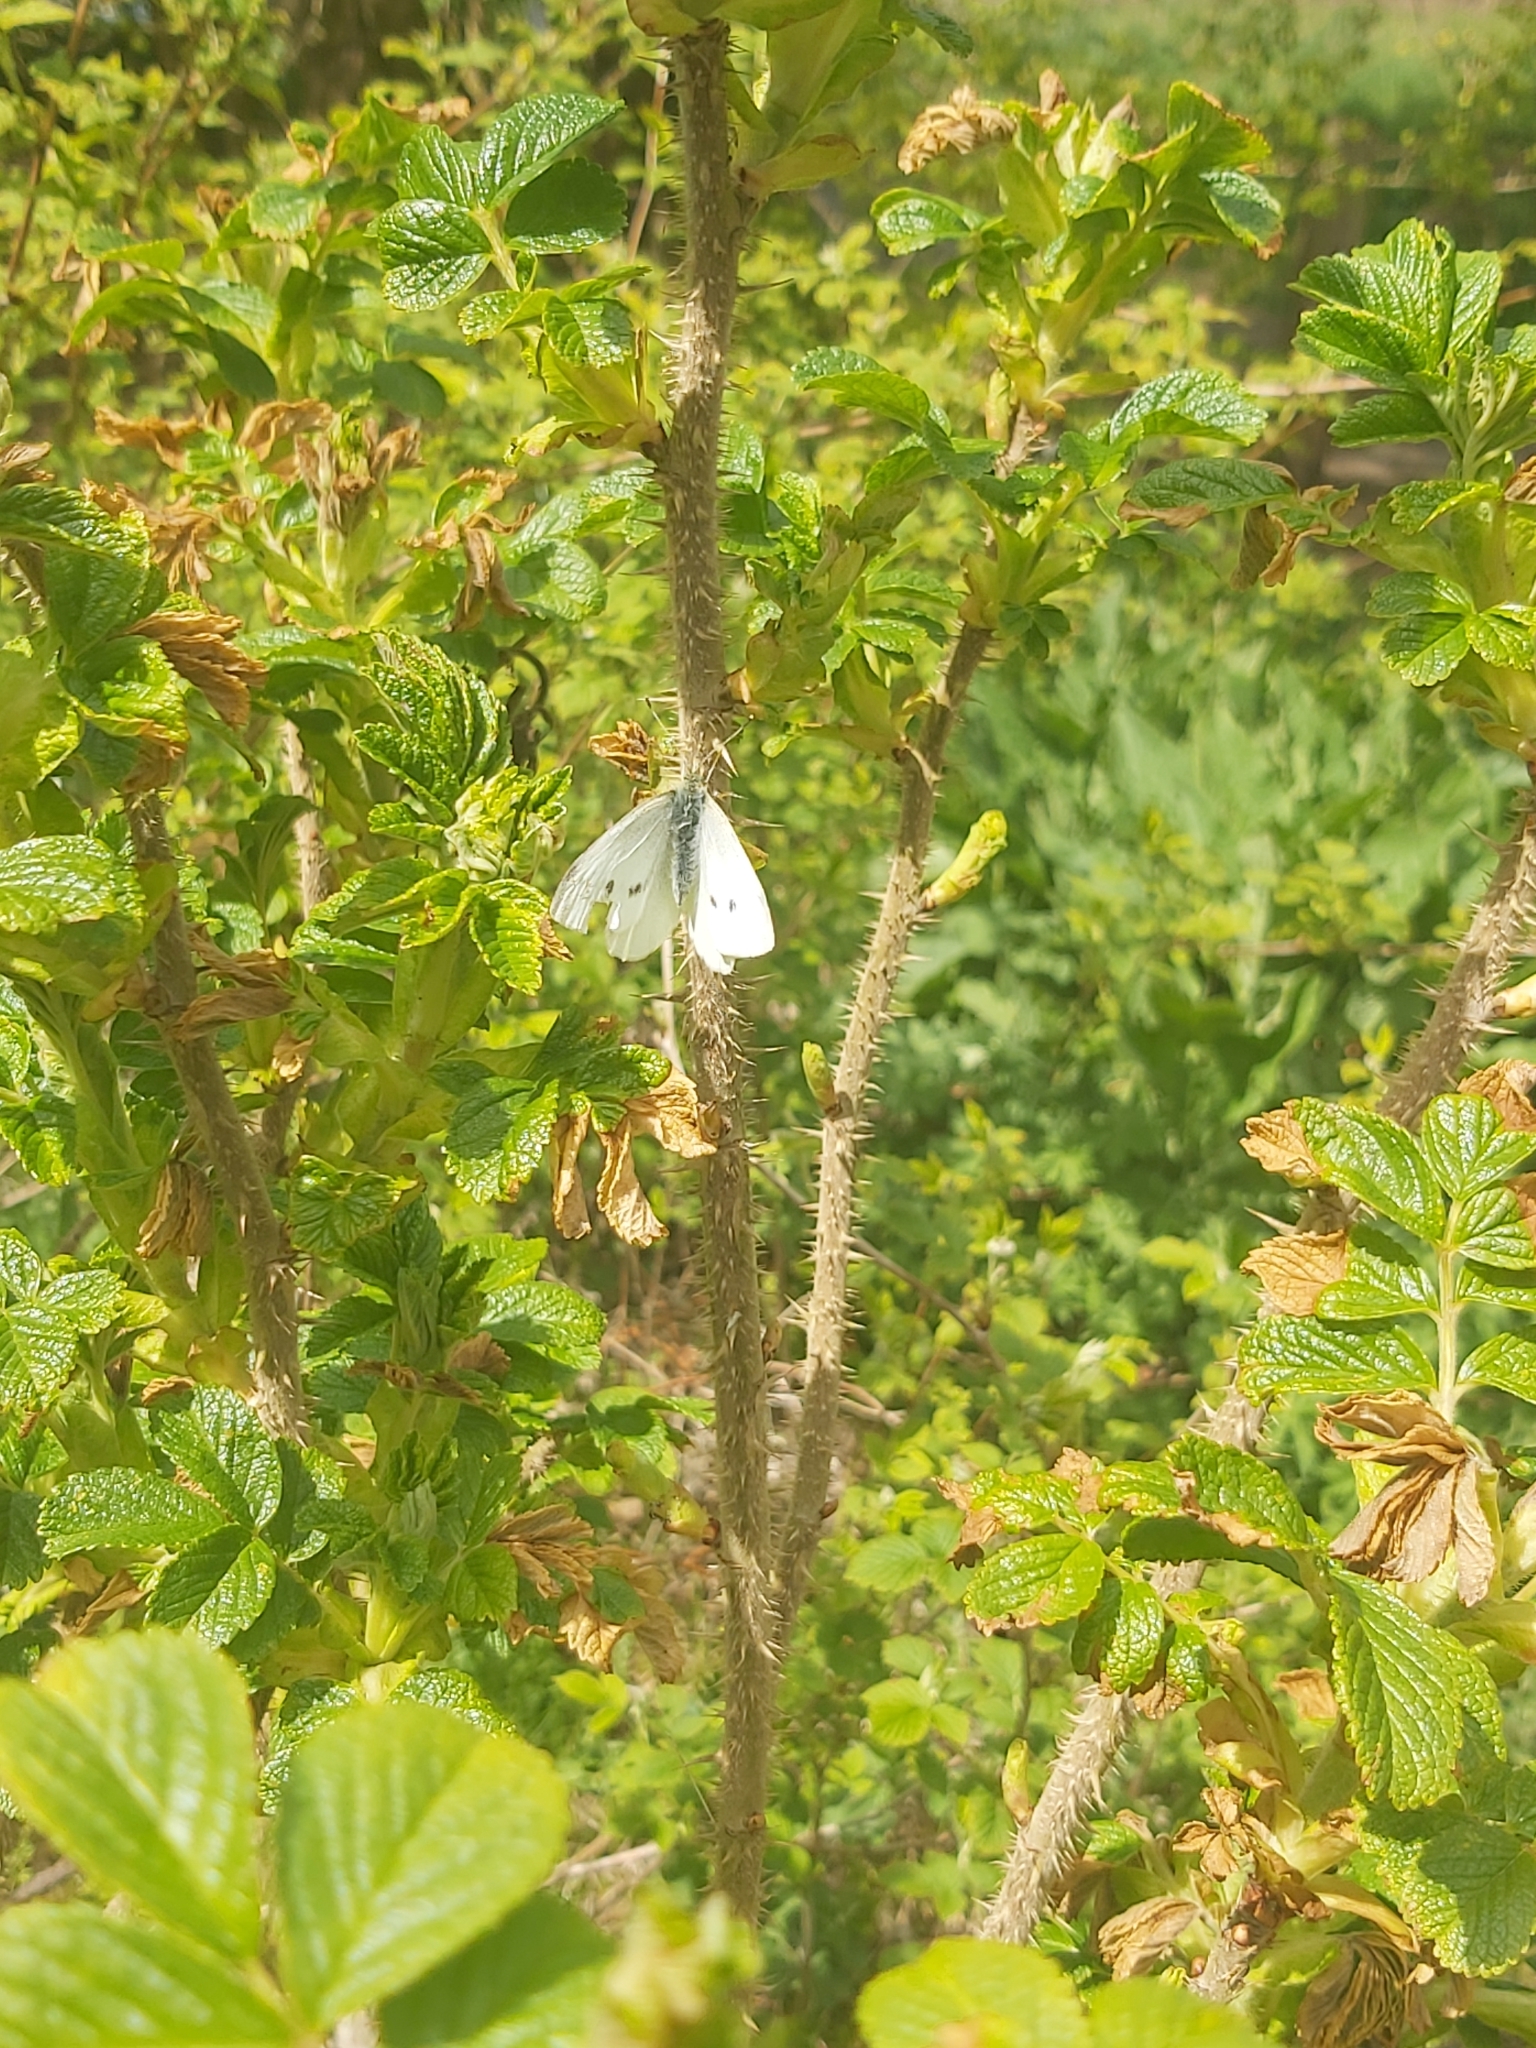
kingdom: Animalia
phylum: Arthropoda
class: Insecta
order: Lepidoptera
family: Pieridae
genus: Pieris
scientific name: Pieris rapae
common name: Small white
